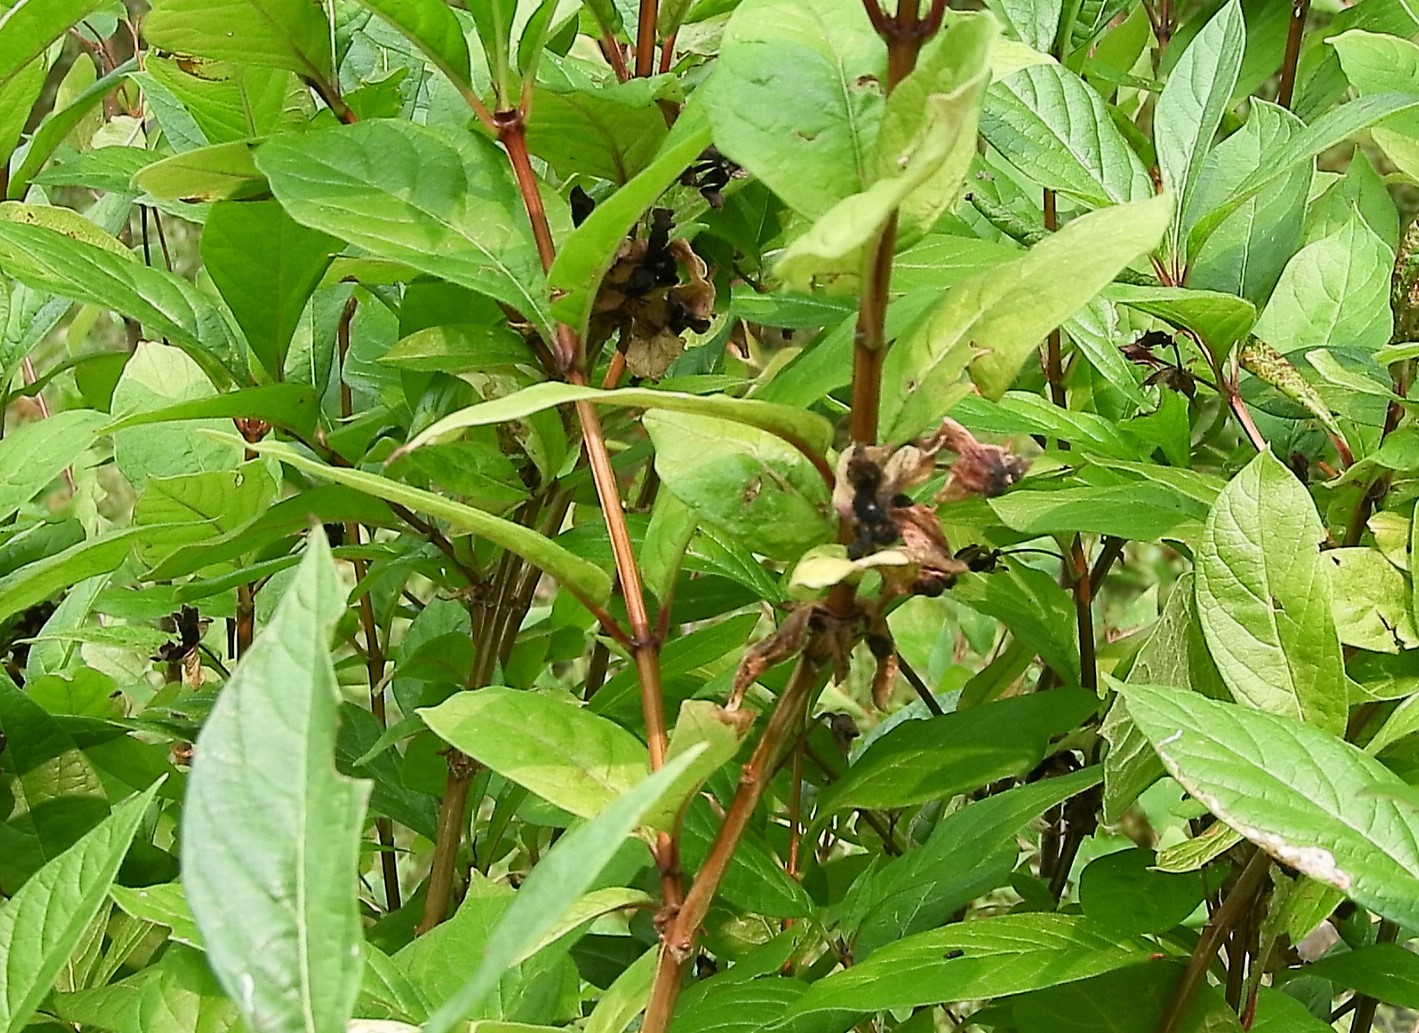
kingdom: Plantae
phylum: Tracheophyta
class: Magnoliopsida
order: Dipsacales
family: Caprifoliaceae
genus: Lonicera
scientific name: Lonicera involucrata
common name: Californian honeysuckle
